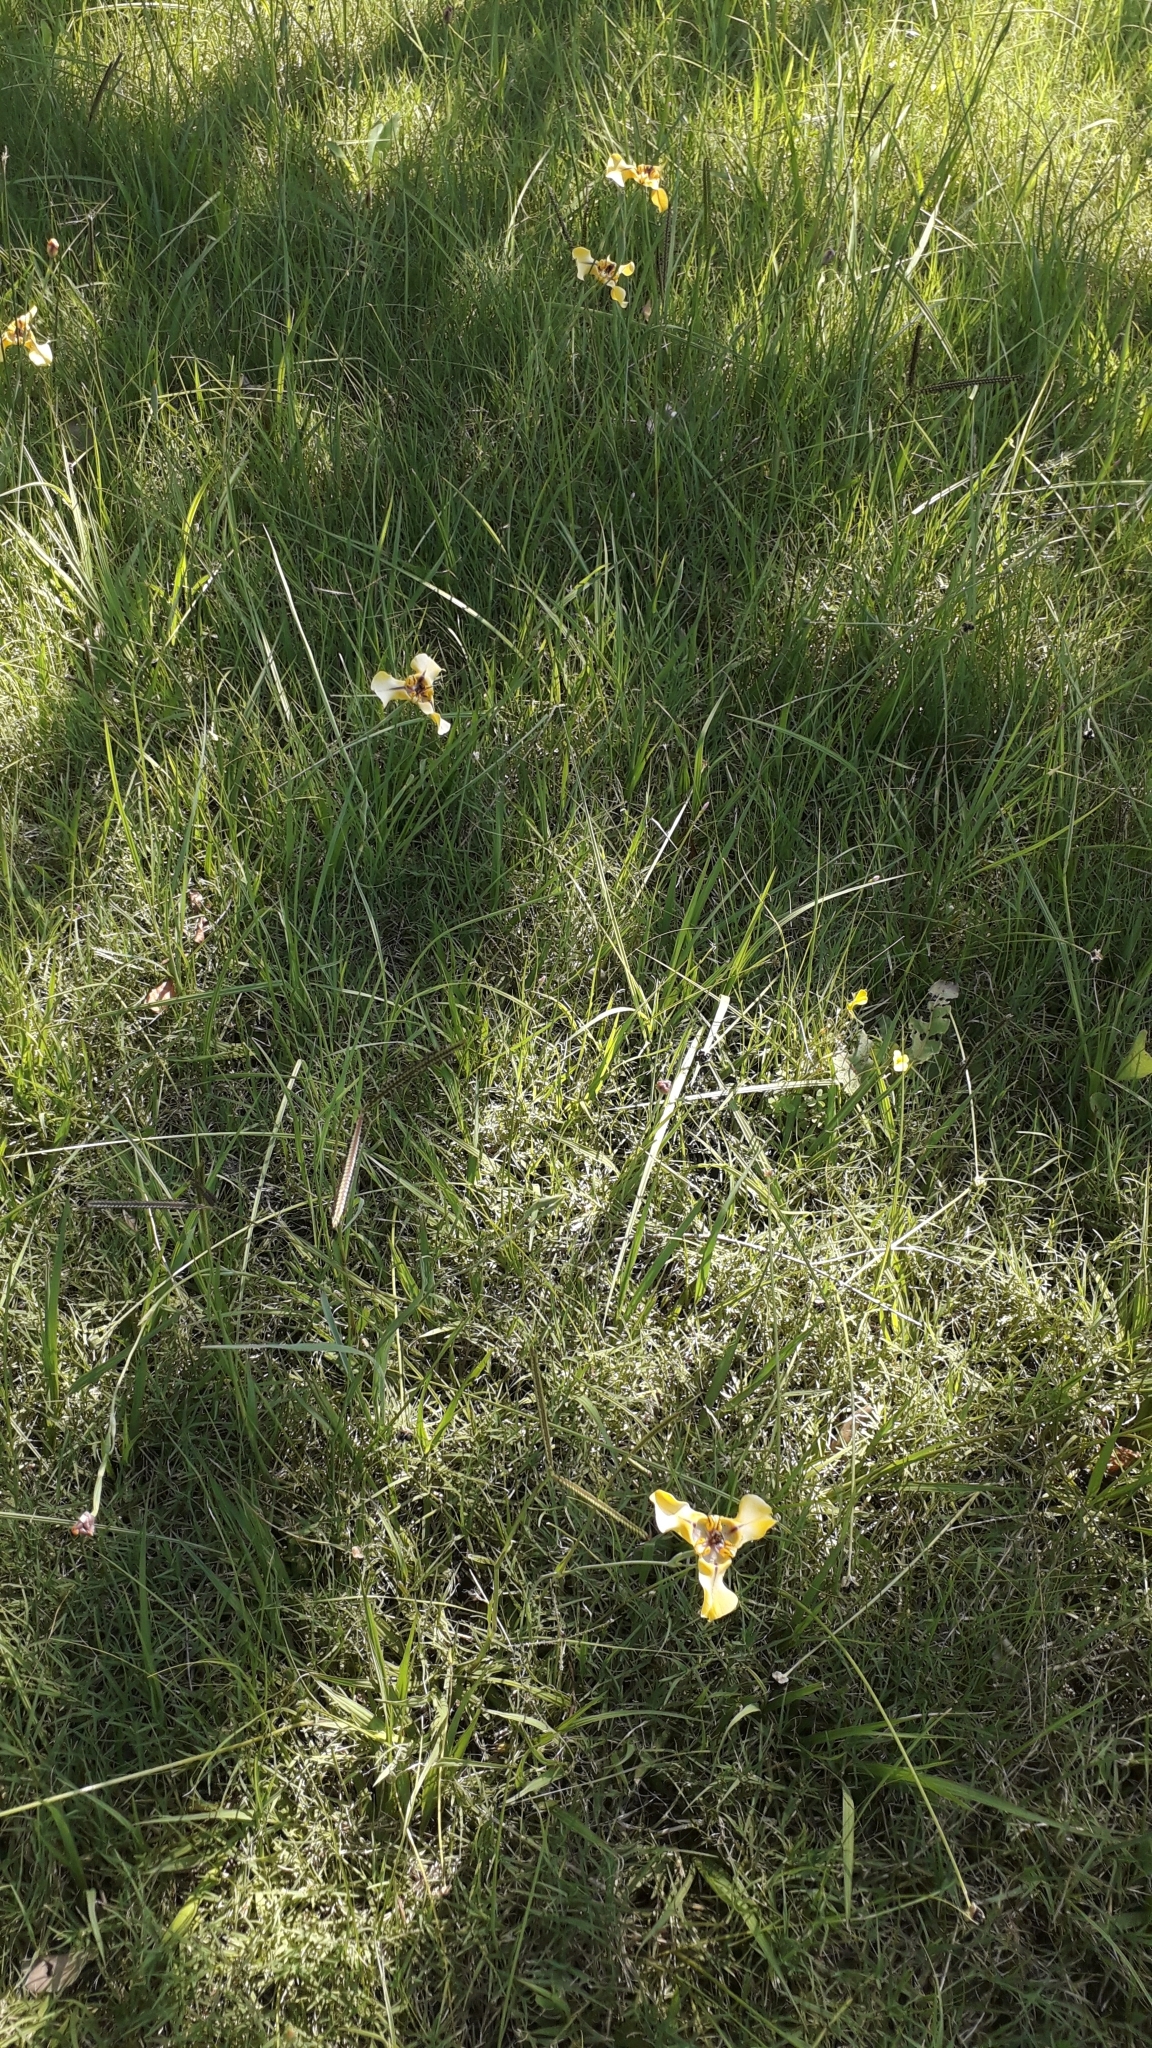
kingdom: Plantae
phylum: Tracheophyta
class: Liliopsida
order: Asparagales
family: Iridaceae
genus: Cypella
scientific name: Cypella herbertii
